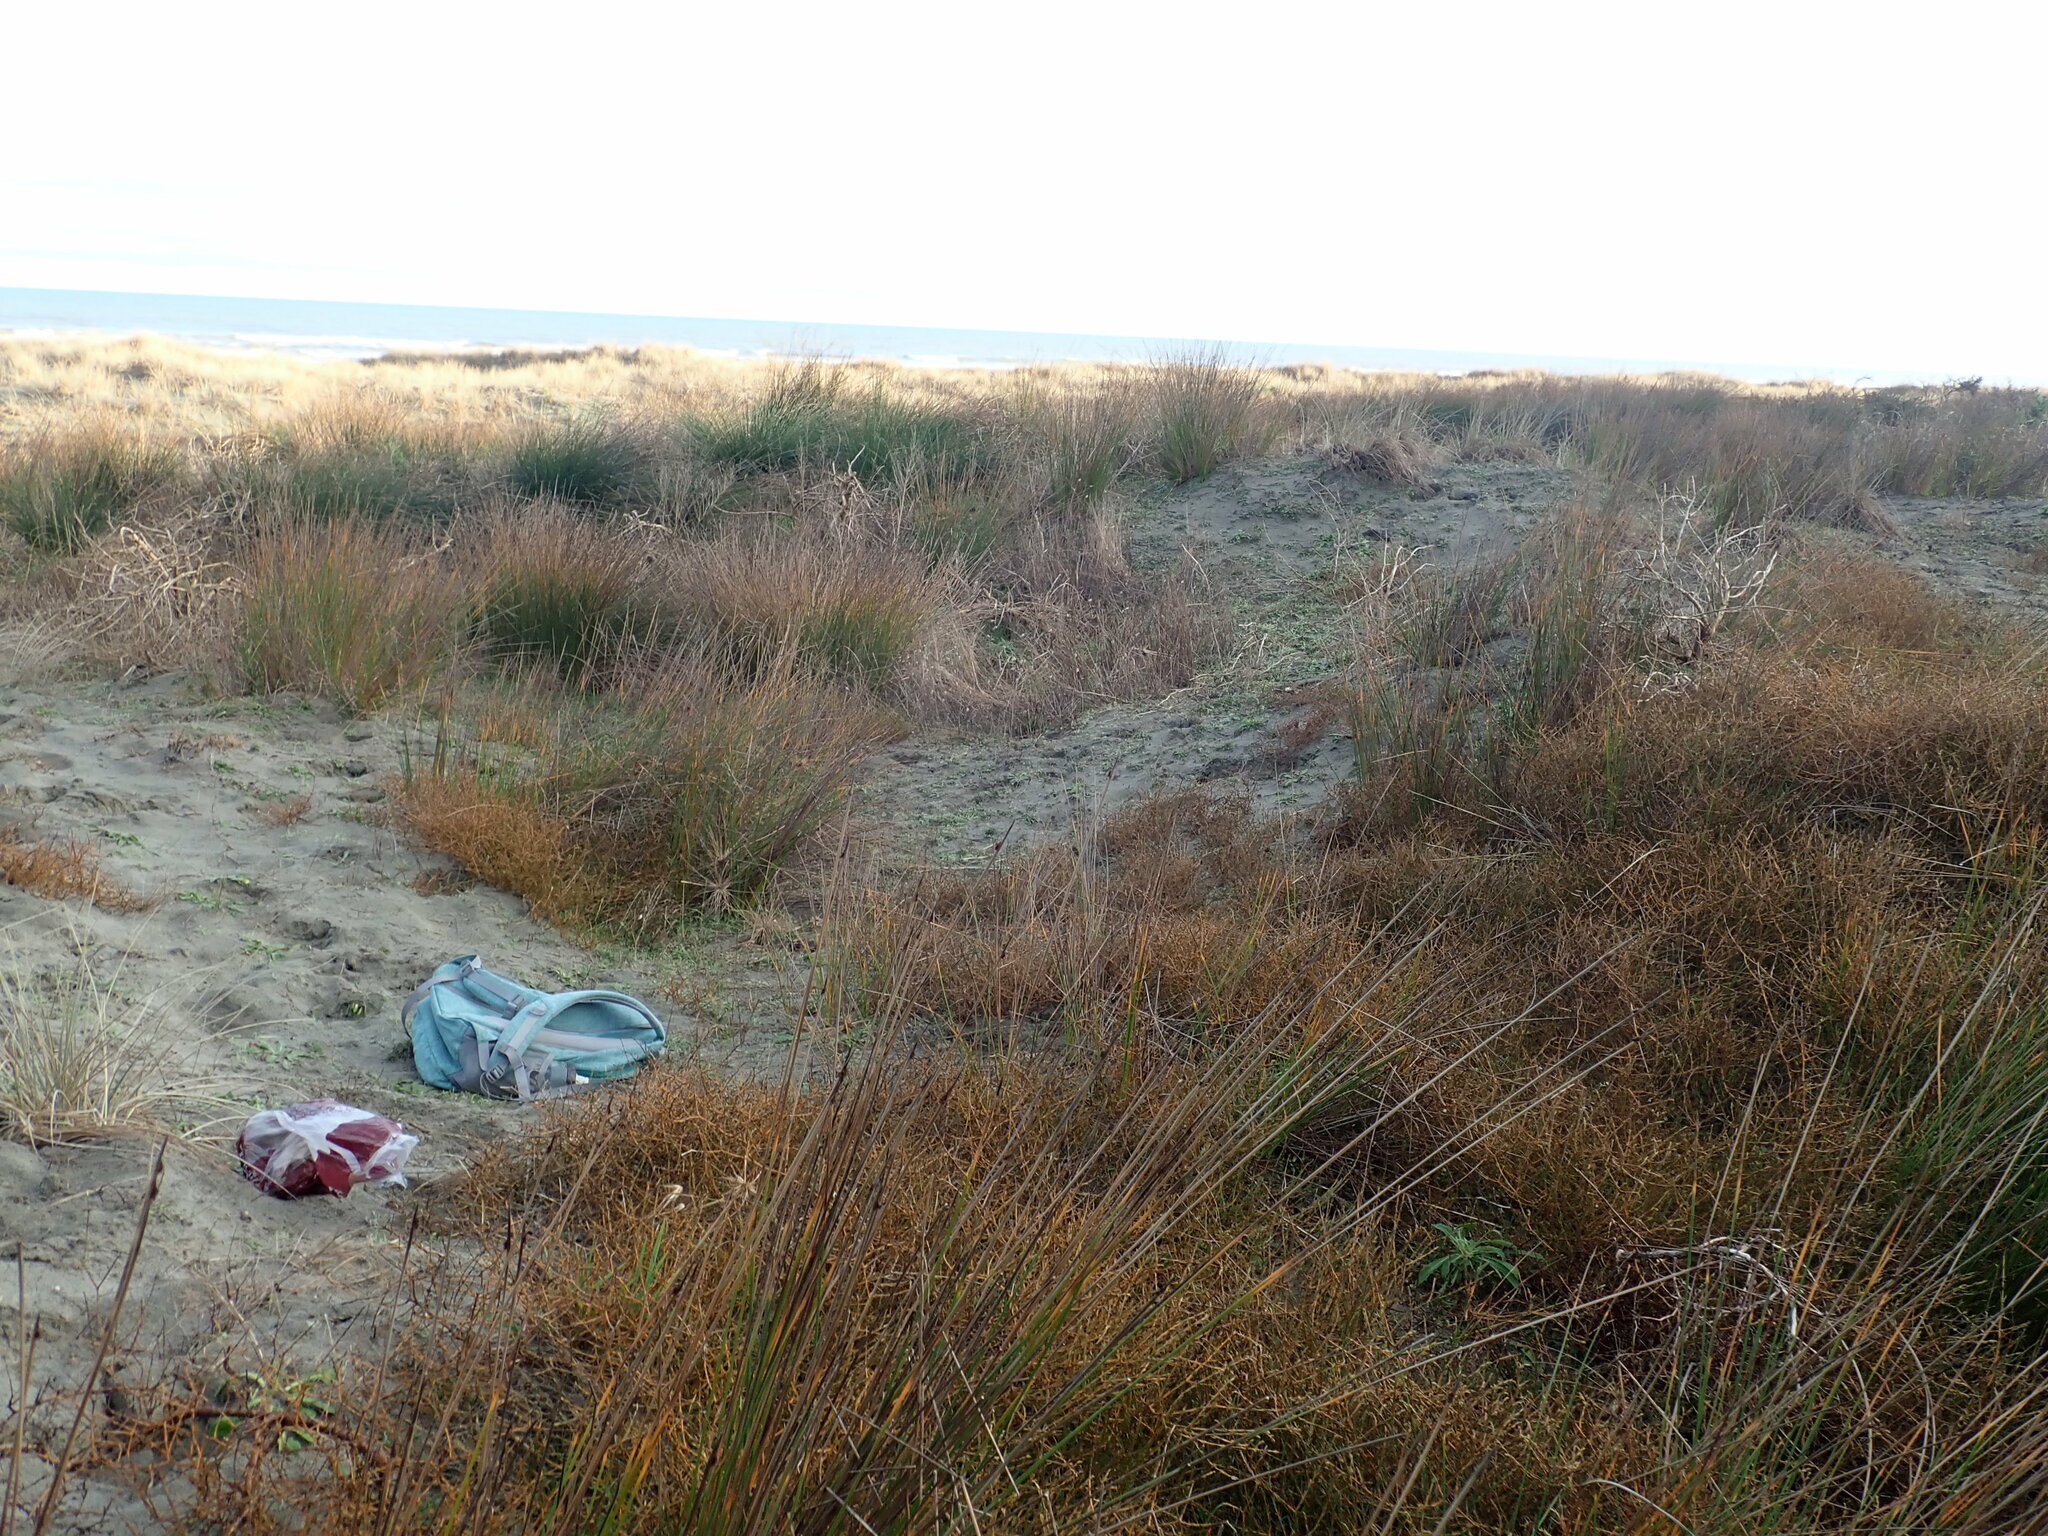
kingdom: Plantae
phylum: Tracheophyta
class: Magnoliopsida
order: Gentianales
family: Rubiaceae
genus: Coprosma
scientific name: Coprosma acerosa
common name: Sand coprosma
